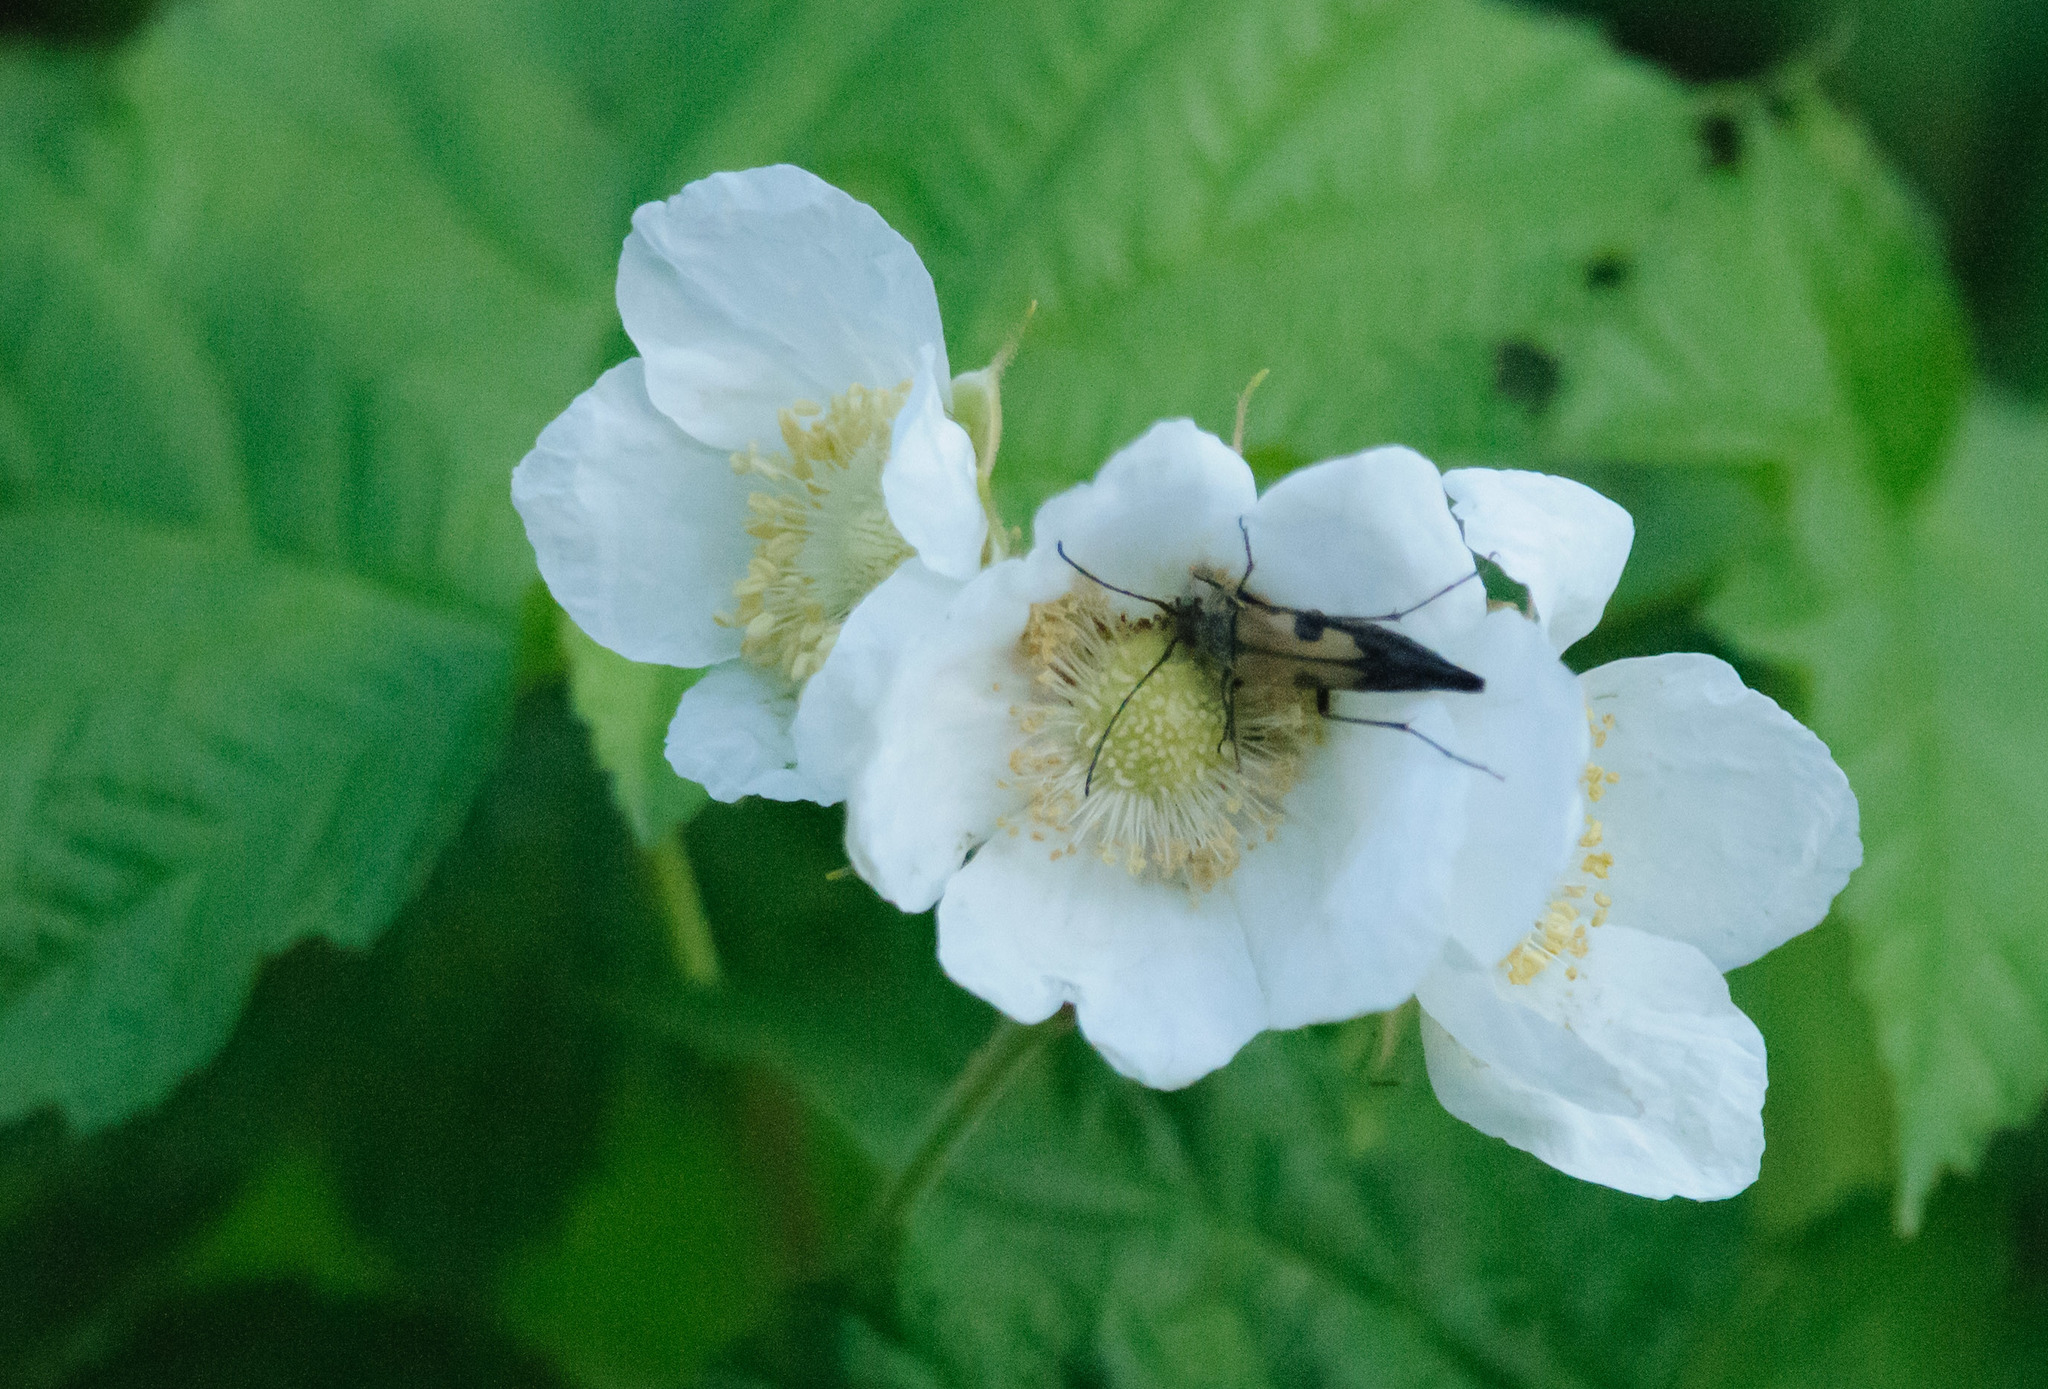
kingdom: Animalia
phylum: Arthropoda
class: Insecta
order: Coleoptera
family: Cerambycidae
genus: Etorofus
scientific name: Etorofus
